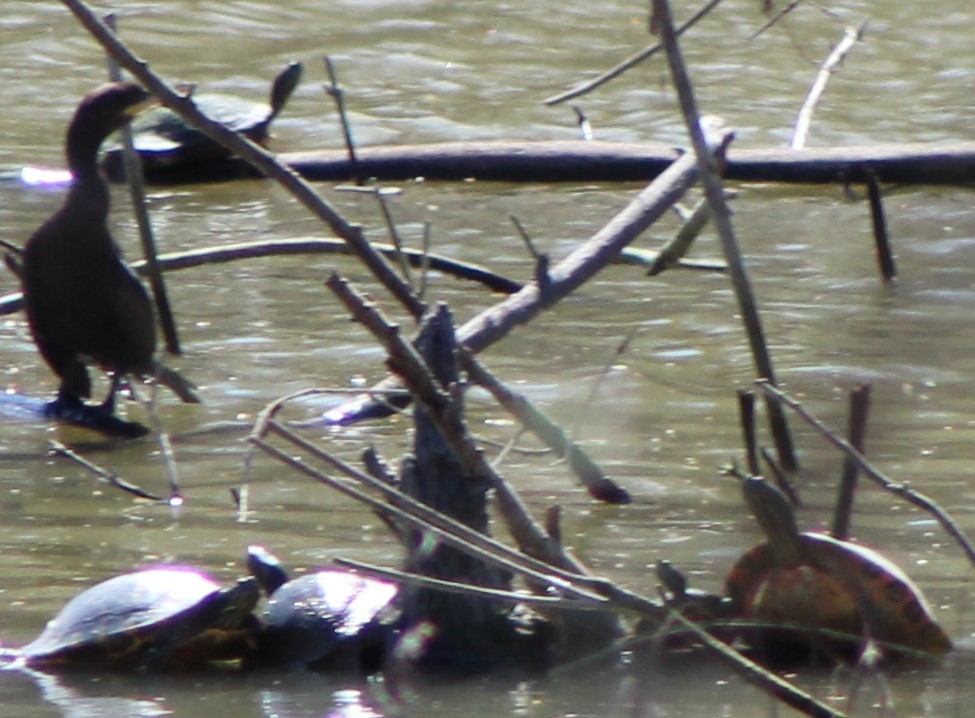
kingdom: Animalia
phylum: Chordata
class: Aves
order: Suliformes
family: Phalacrocoracidae
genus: Phalacrocorax
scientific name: Phalacrocorax brasilianus
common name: Neotropic cormorant
